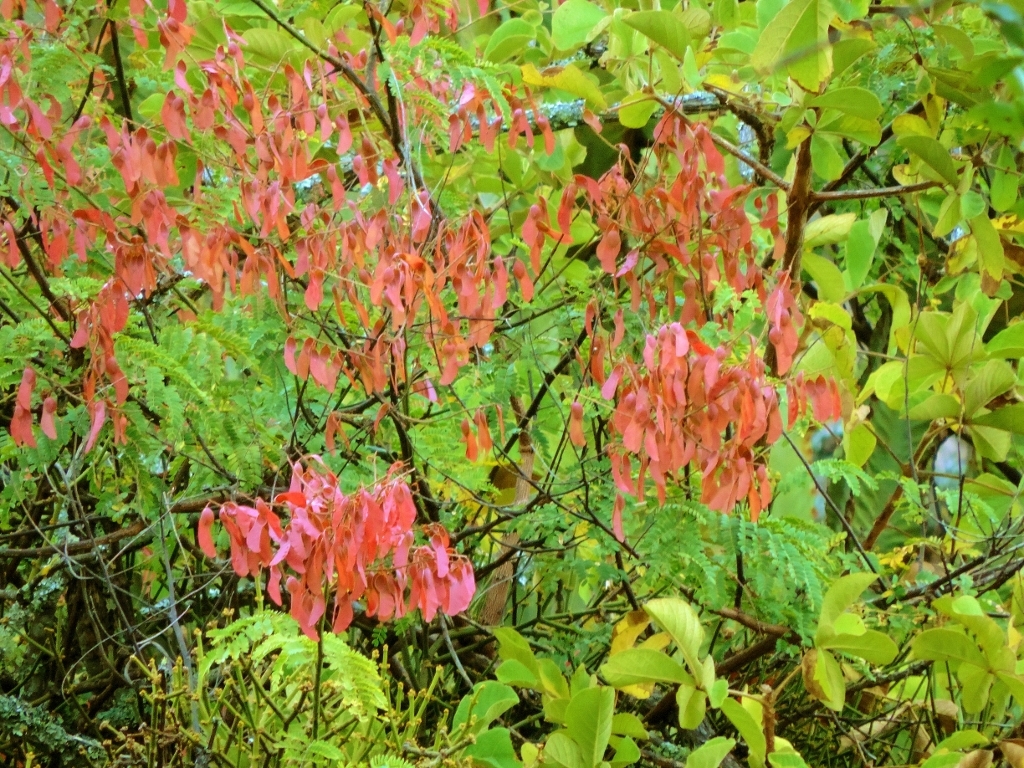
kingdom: Plantae
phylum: Tracheophyta
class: Magnoliopsida
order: Fabales
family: Fabaceae
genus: Pterolobium
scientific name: Pterolobium stellatum
